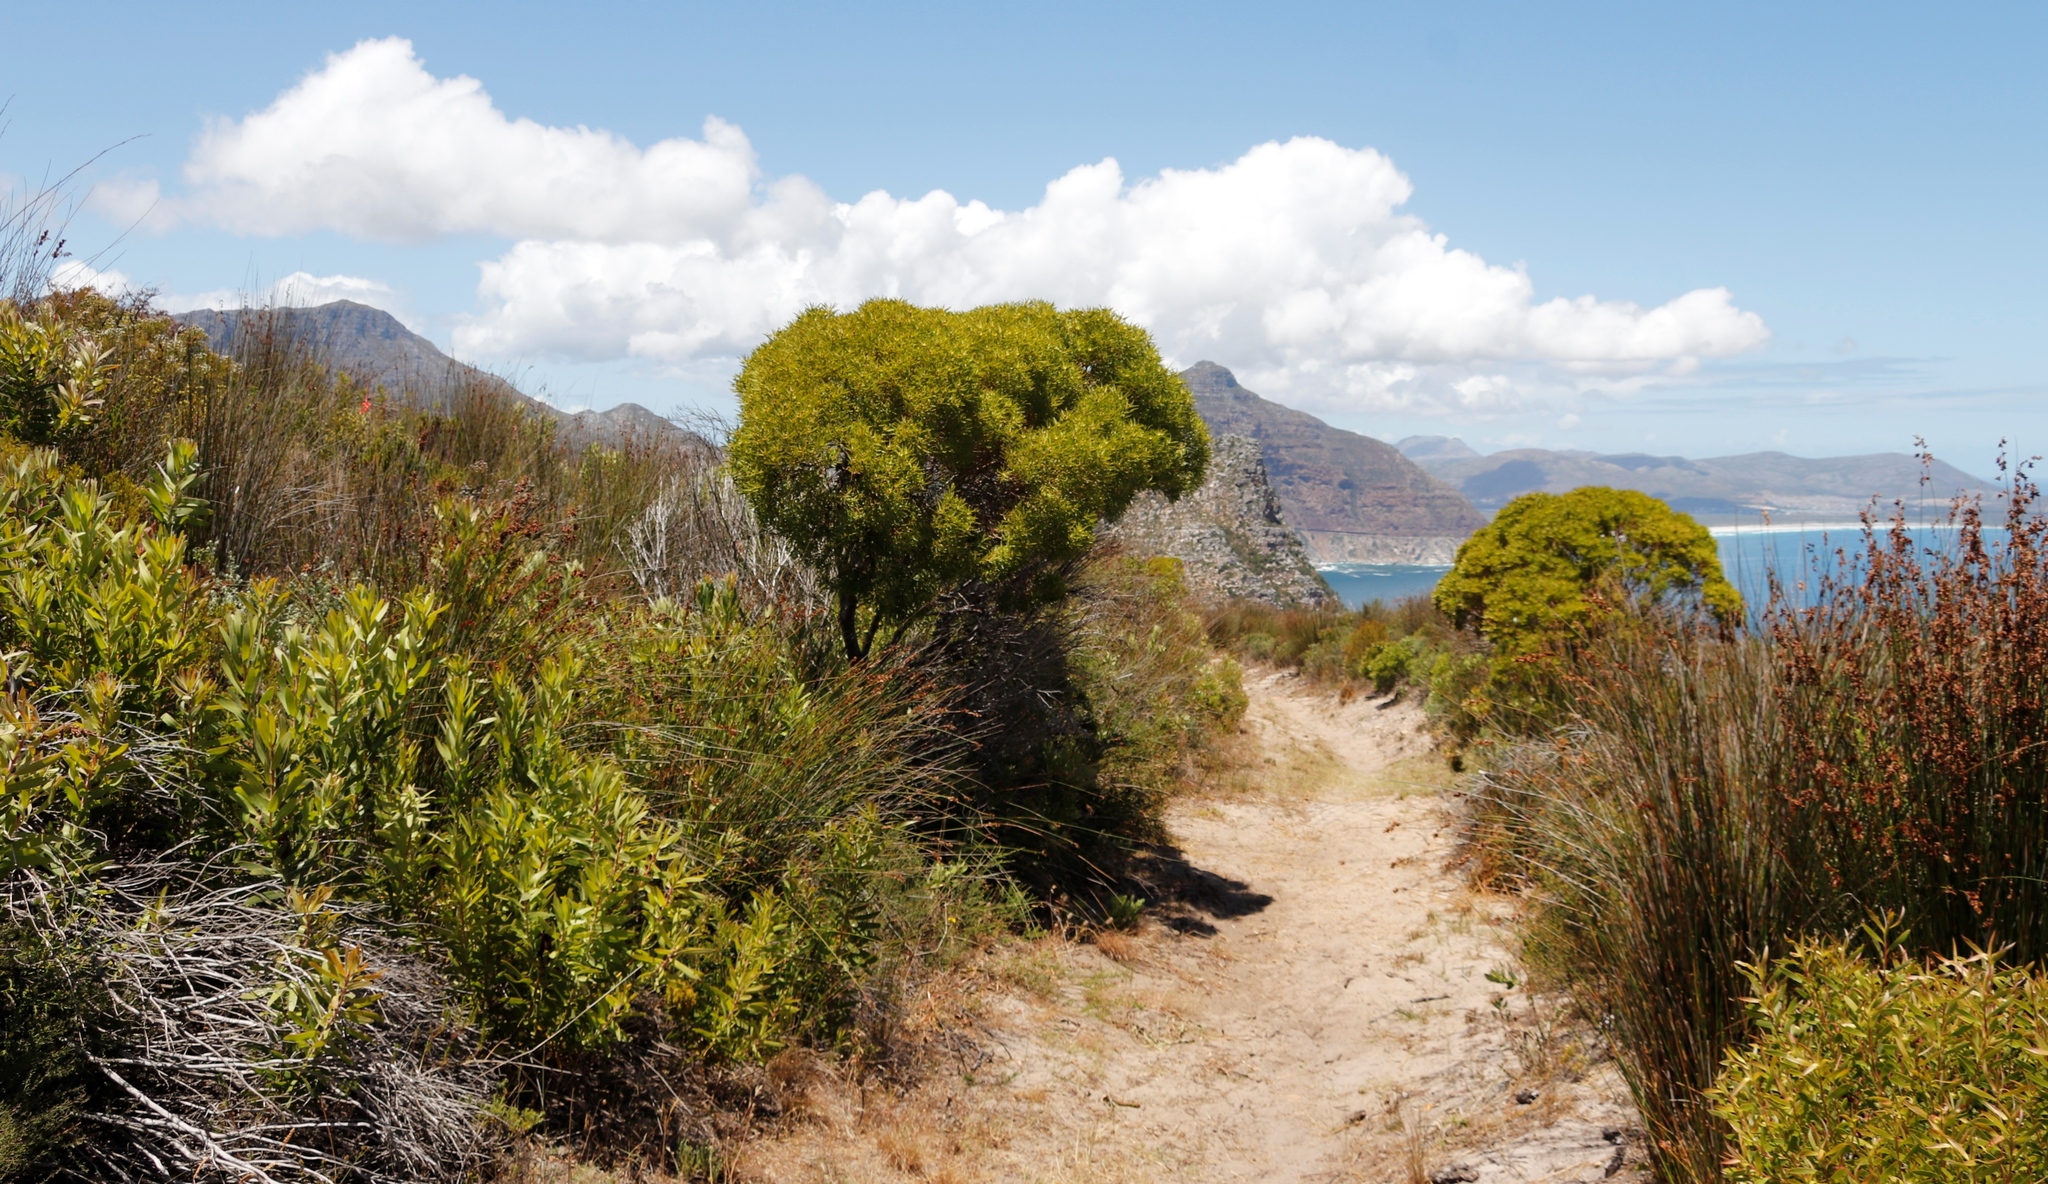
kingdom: Plantae
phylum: Tracheophyta
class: Magnoliopsida
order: Proteales
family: Proteaceae
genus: Leucadendron
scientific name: Leucadendron coniferum
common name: Dune conebush
